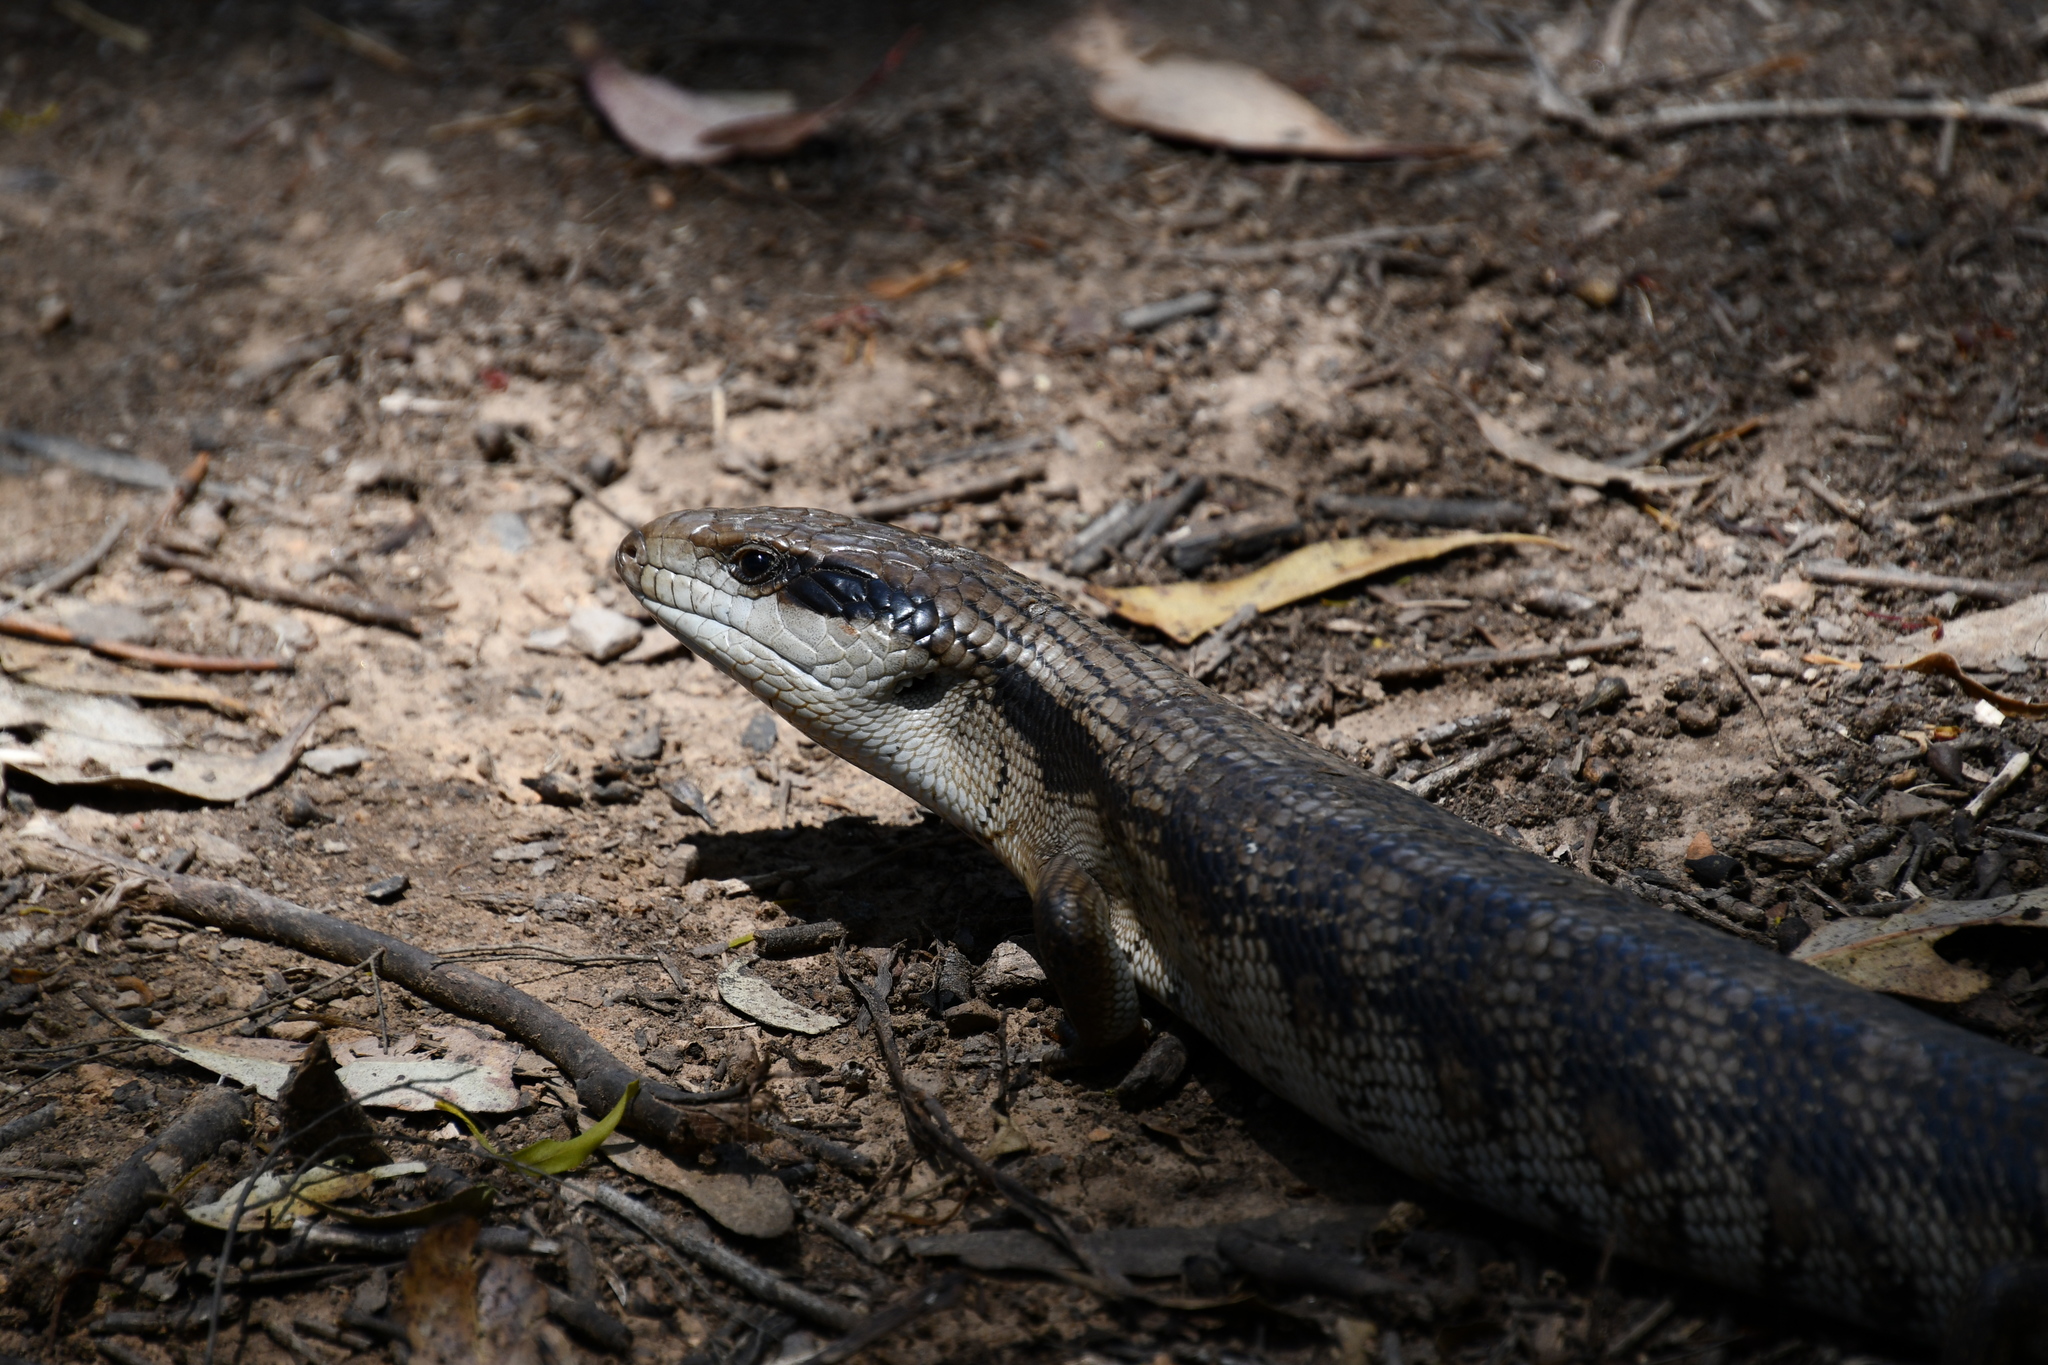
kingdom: Animalia
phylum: Chordata
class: Squamata
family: Scincidae
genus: Tiliqua
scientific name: Tiliqua scincoides
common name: Common bluetongue
